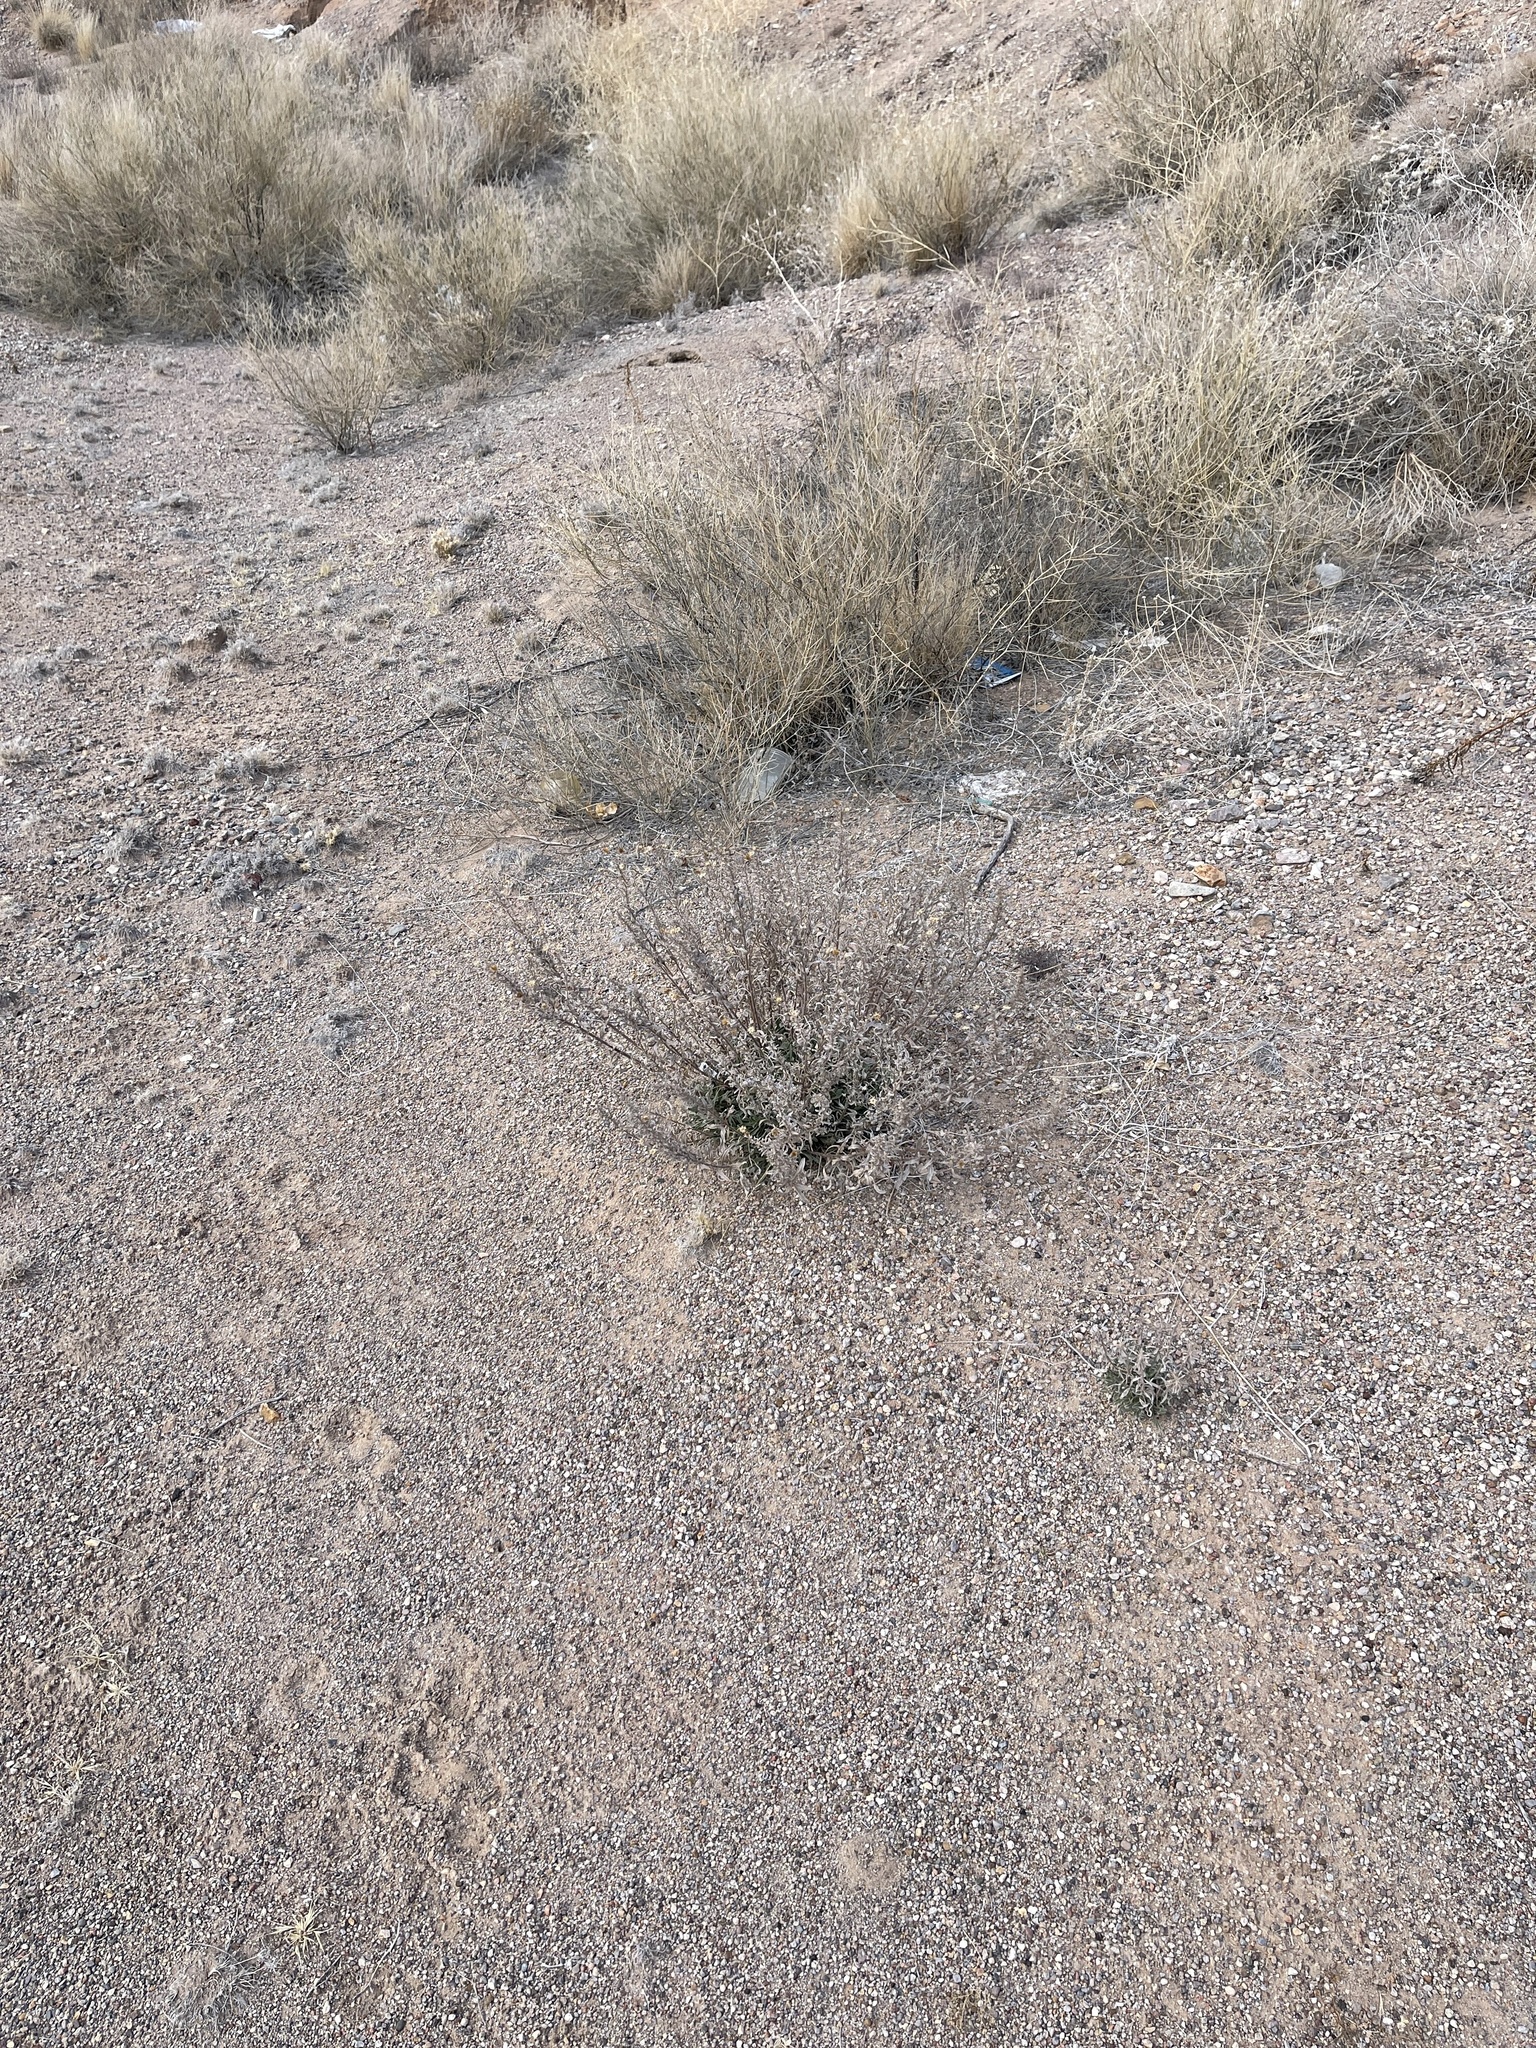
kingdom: Plantae
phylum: Tracheophyta
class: Magnoliopsida
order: Asterales
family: Asteraceae
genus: Heterotheca
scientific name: Heterotheca zionensis
